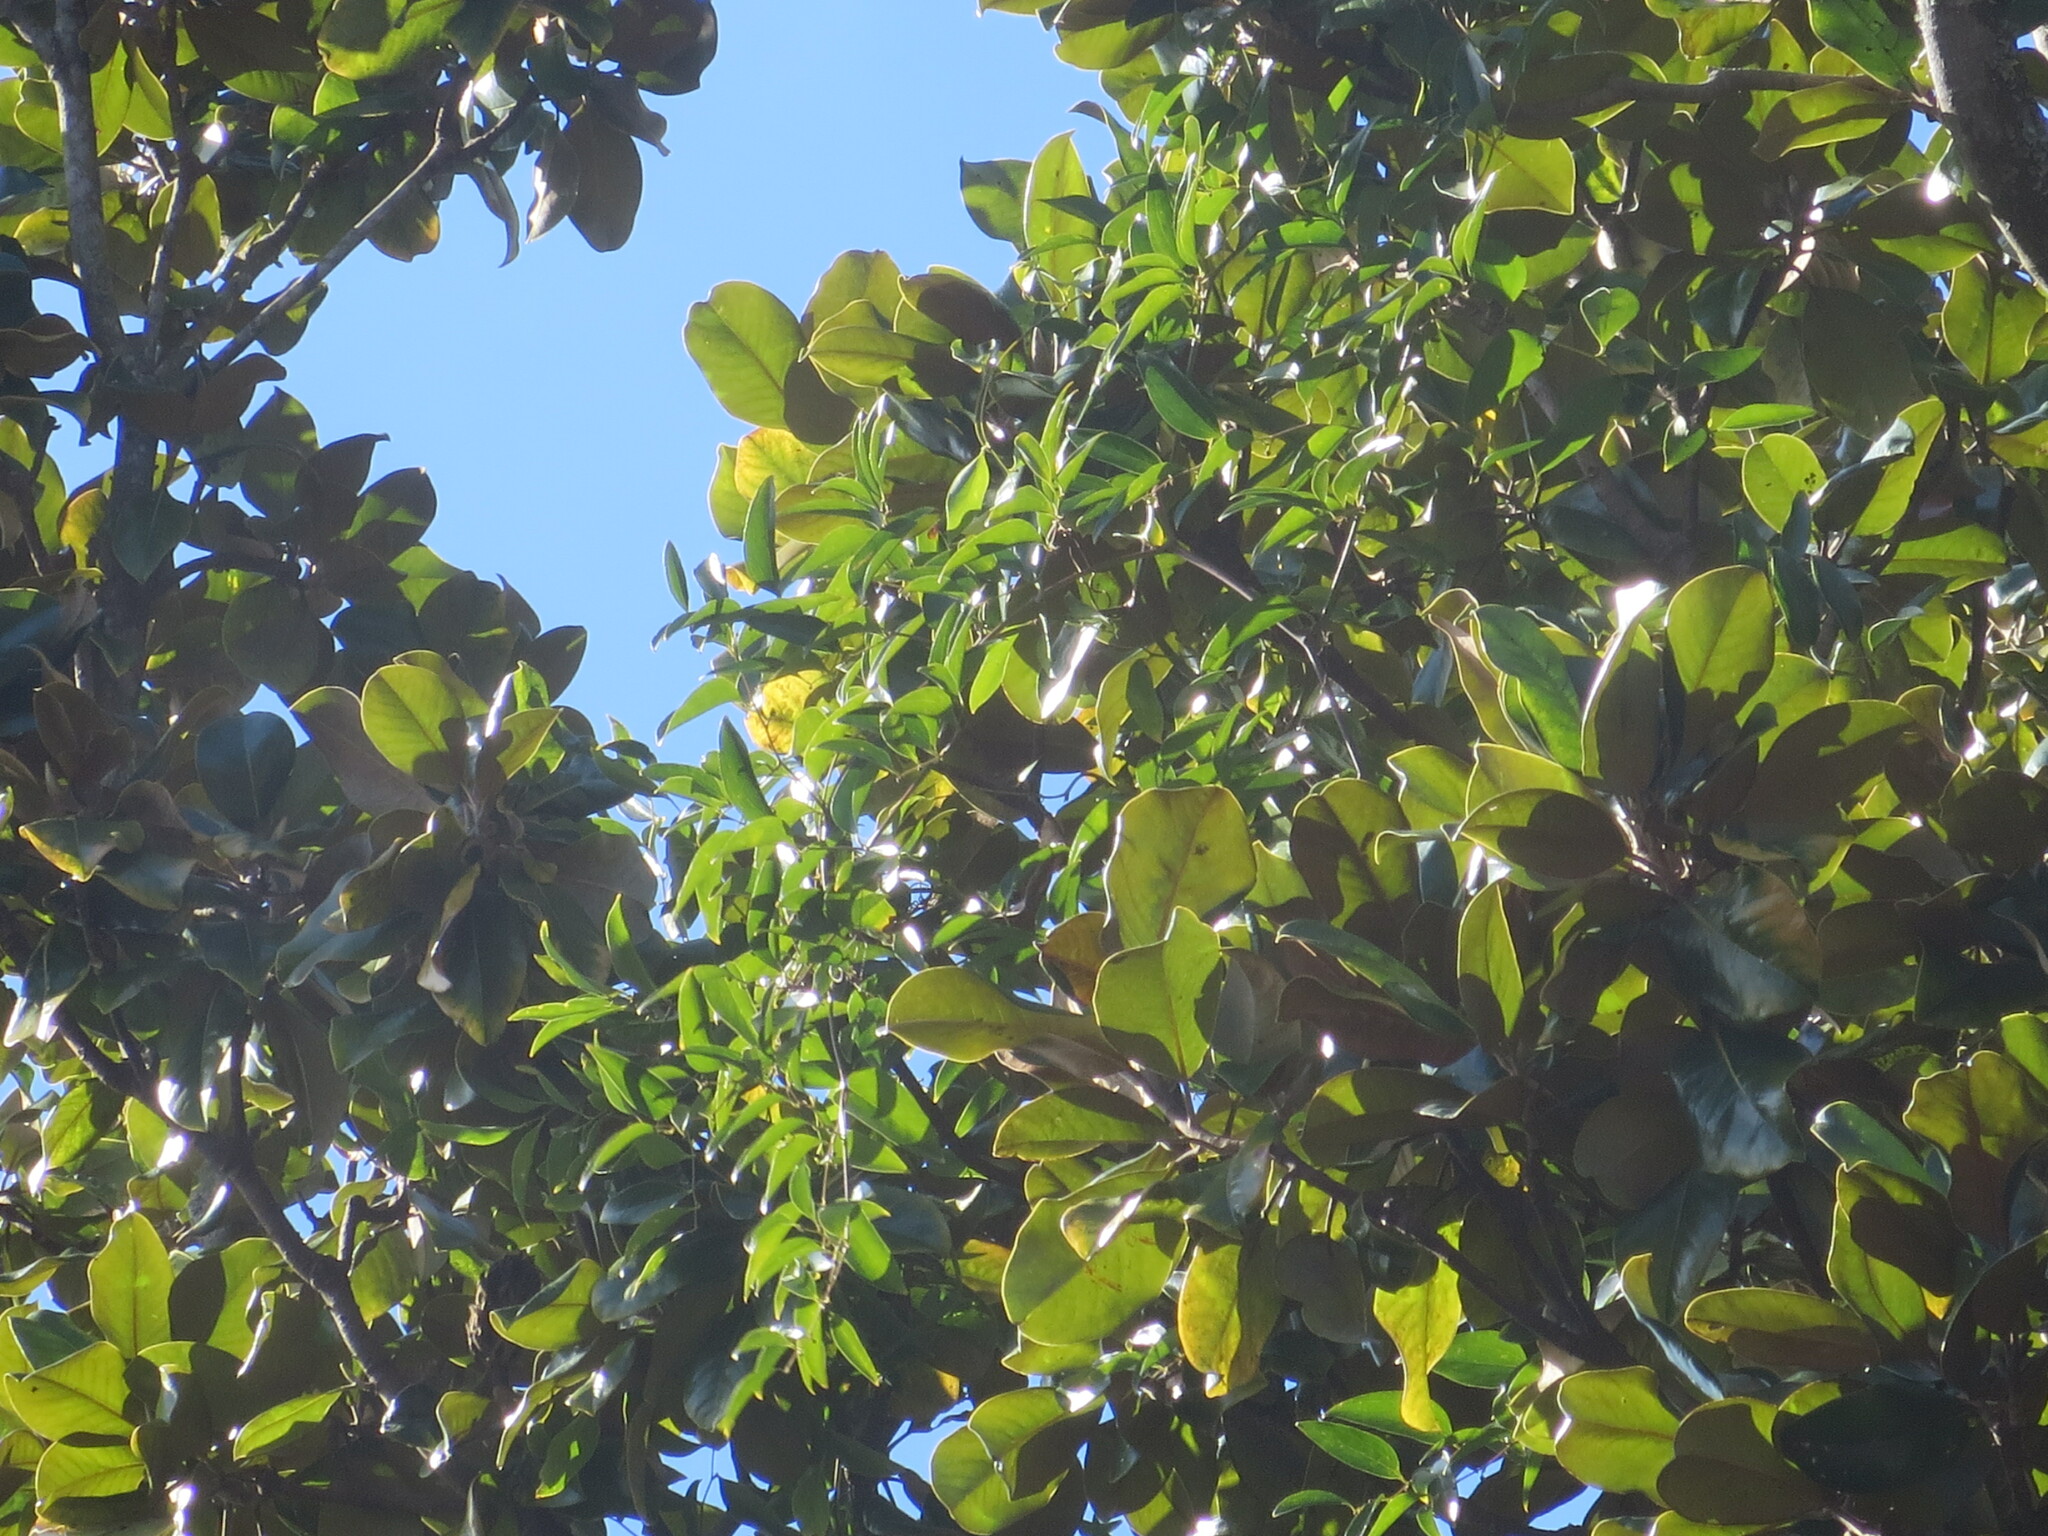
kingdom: Plantae
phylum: Tracheophyta
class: Magnoliopsida
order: Magnoliales
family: Magnoliaceae
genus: Magnolia
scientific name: Magnolia grandiflora
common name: Southern magnolia
